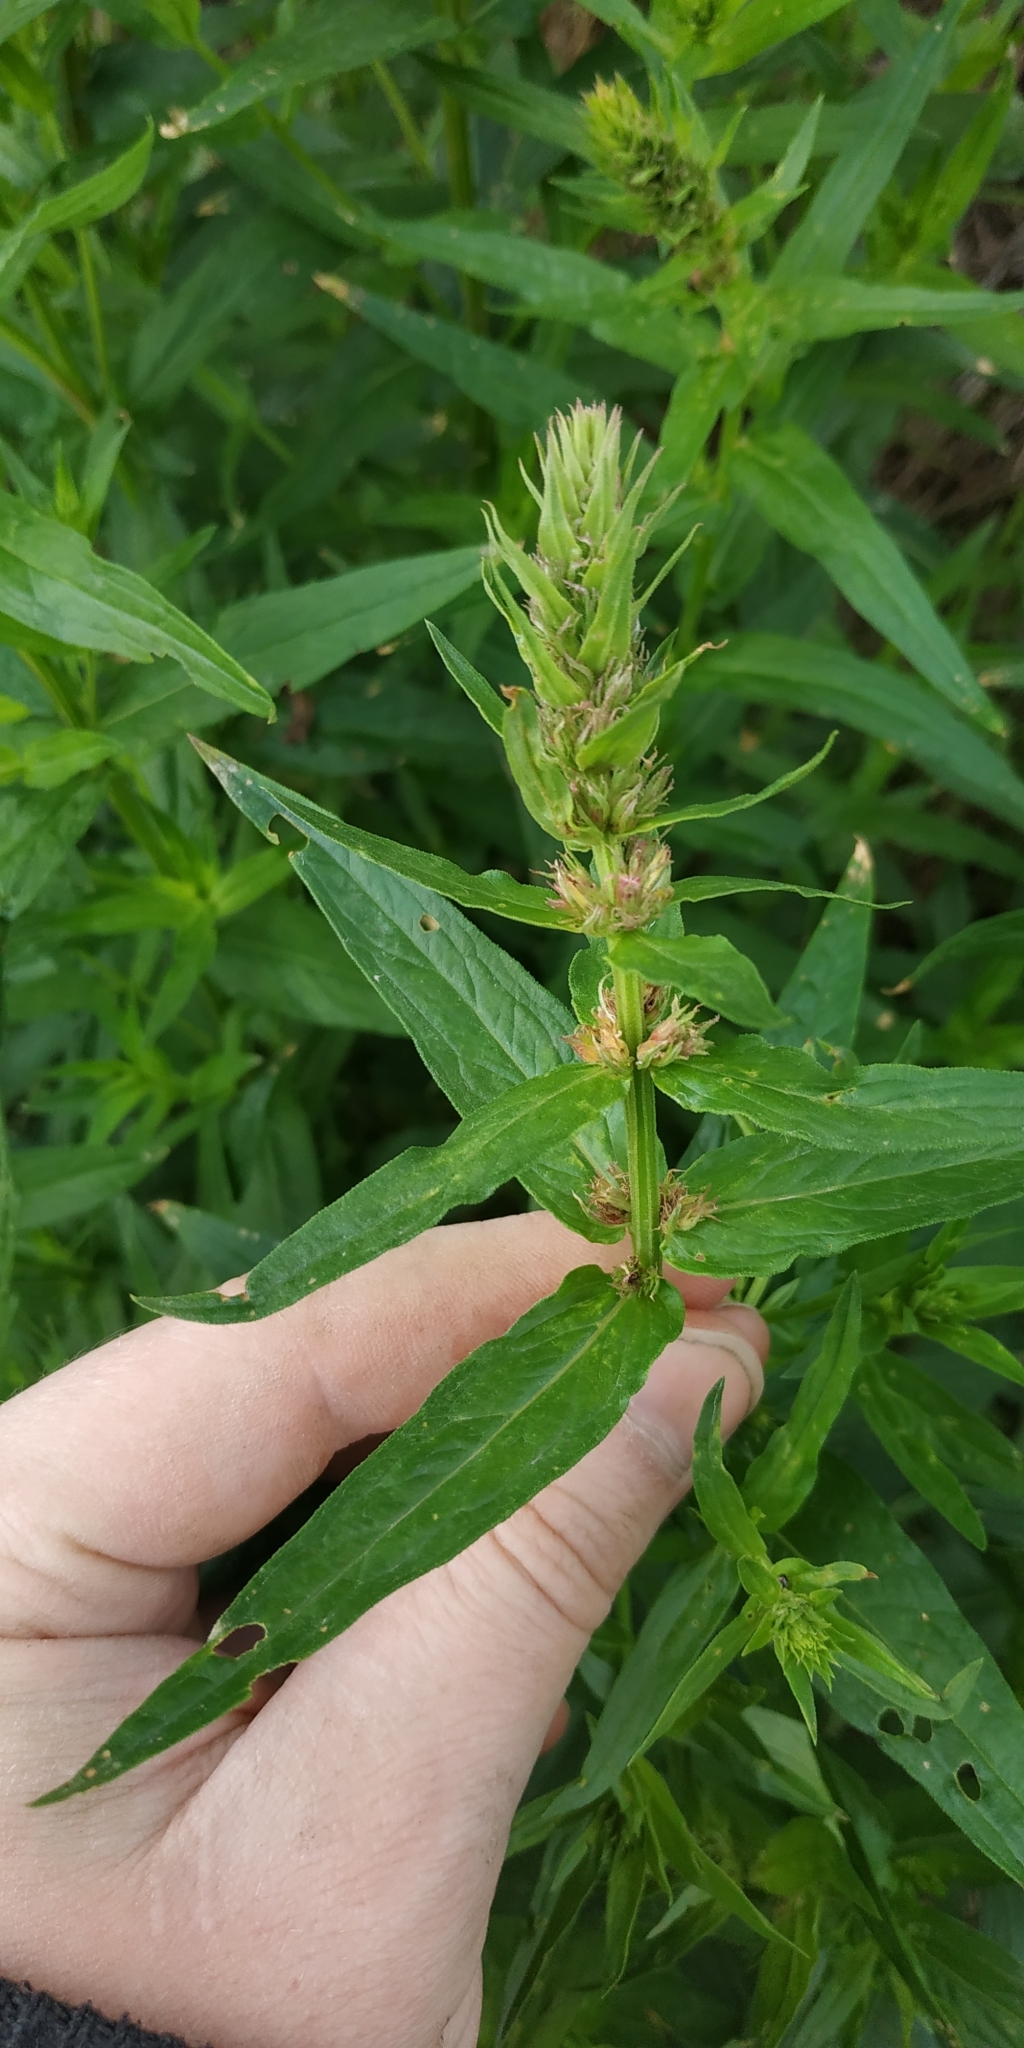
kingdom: Plantae
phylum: Tracheophyta
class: Magnoliopsida
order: Myrtales
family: Lythraceae
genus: Lythrum
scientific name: Lythrum salicaria
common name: Purple loosestrife
